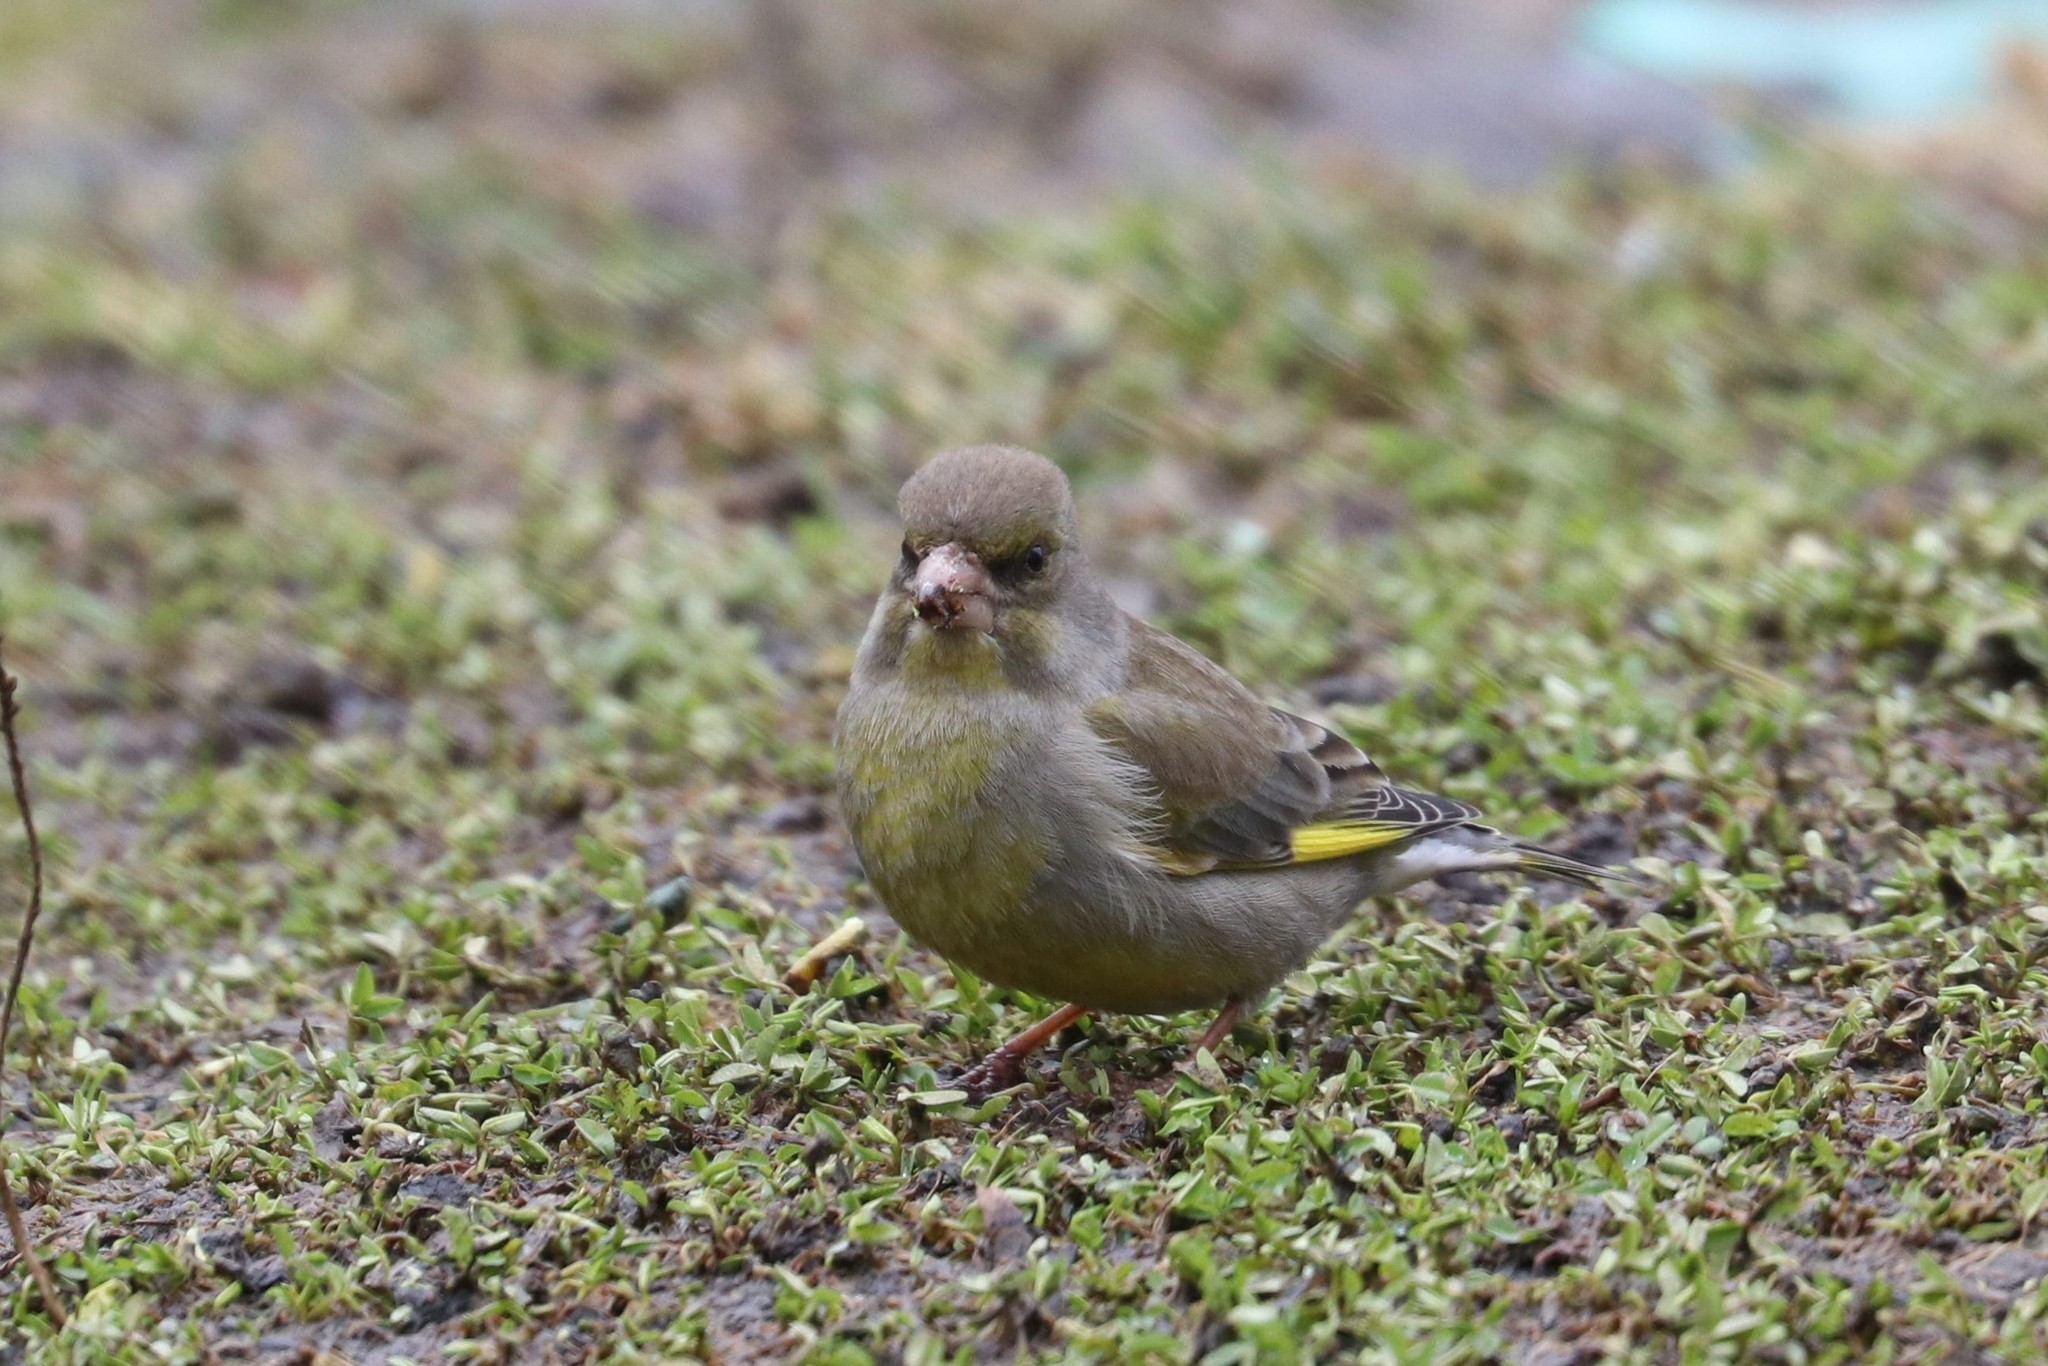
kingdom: Plantae
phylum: Tracheophyta
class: Liliopsida
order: Poales
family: Poaceae
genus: Chloris
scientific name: Chloris chloris
